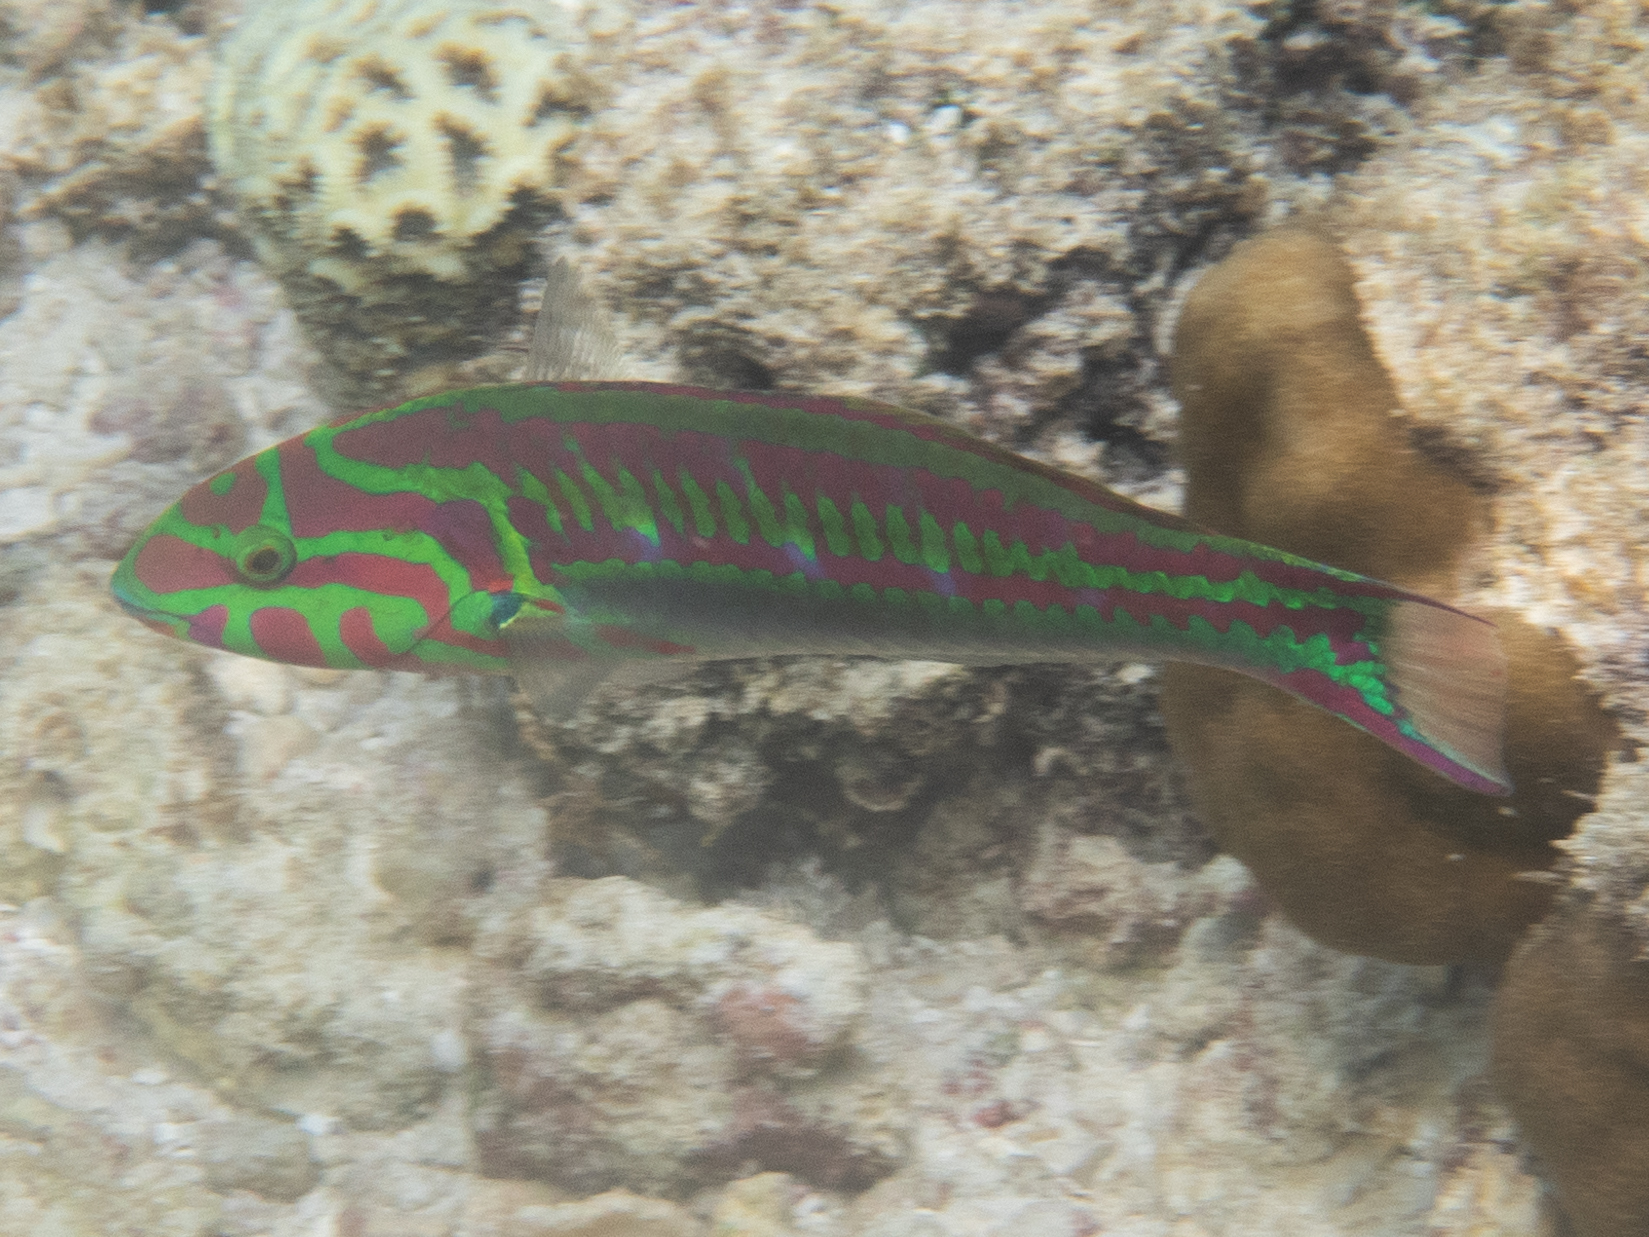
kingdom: Animalia
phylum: Chordata
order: Perciformes
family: Labridae
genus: Thalassoma
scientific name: Thalassoma quinquevittatum
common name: Five striped surge wrasse
